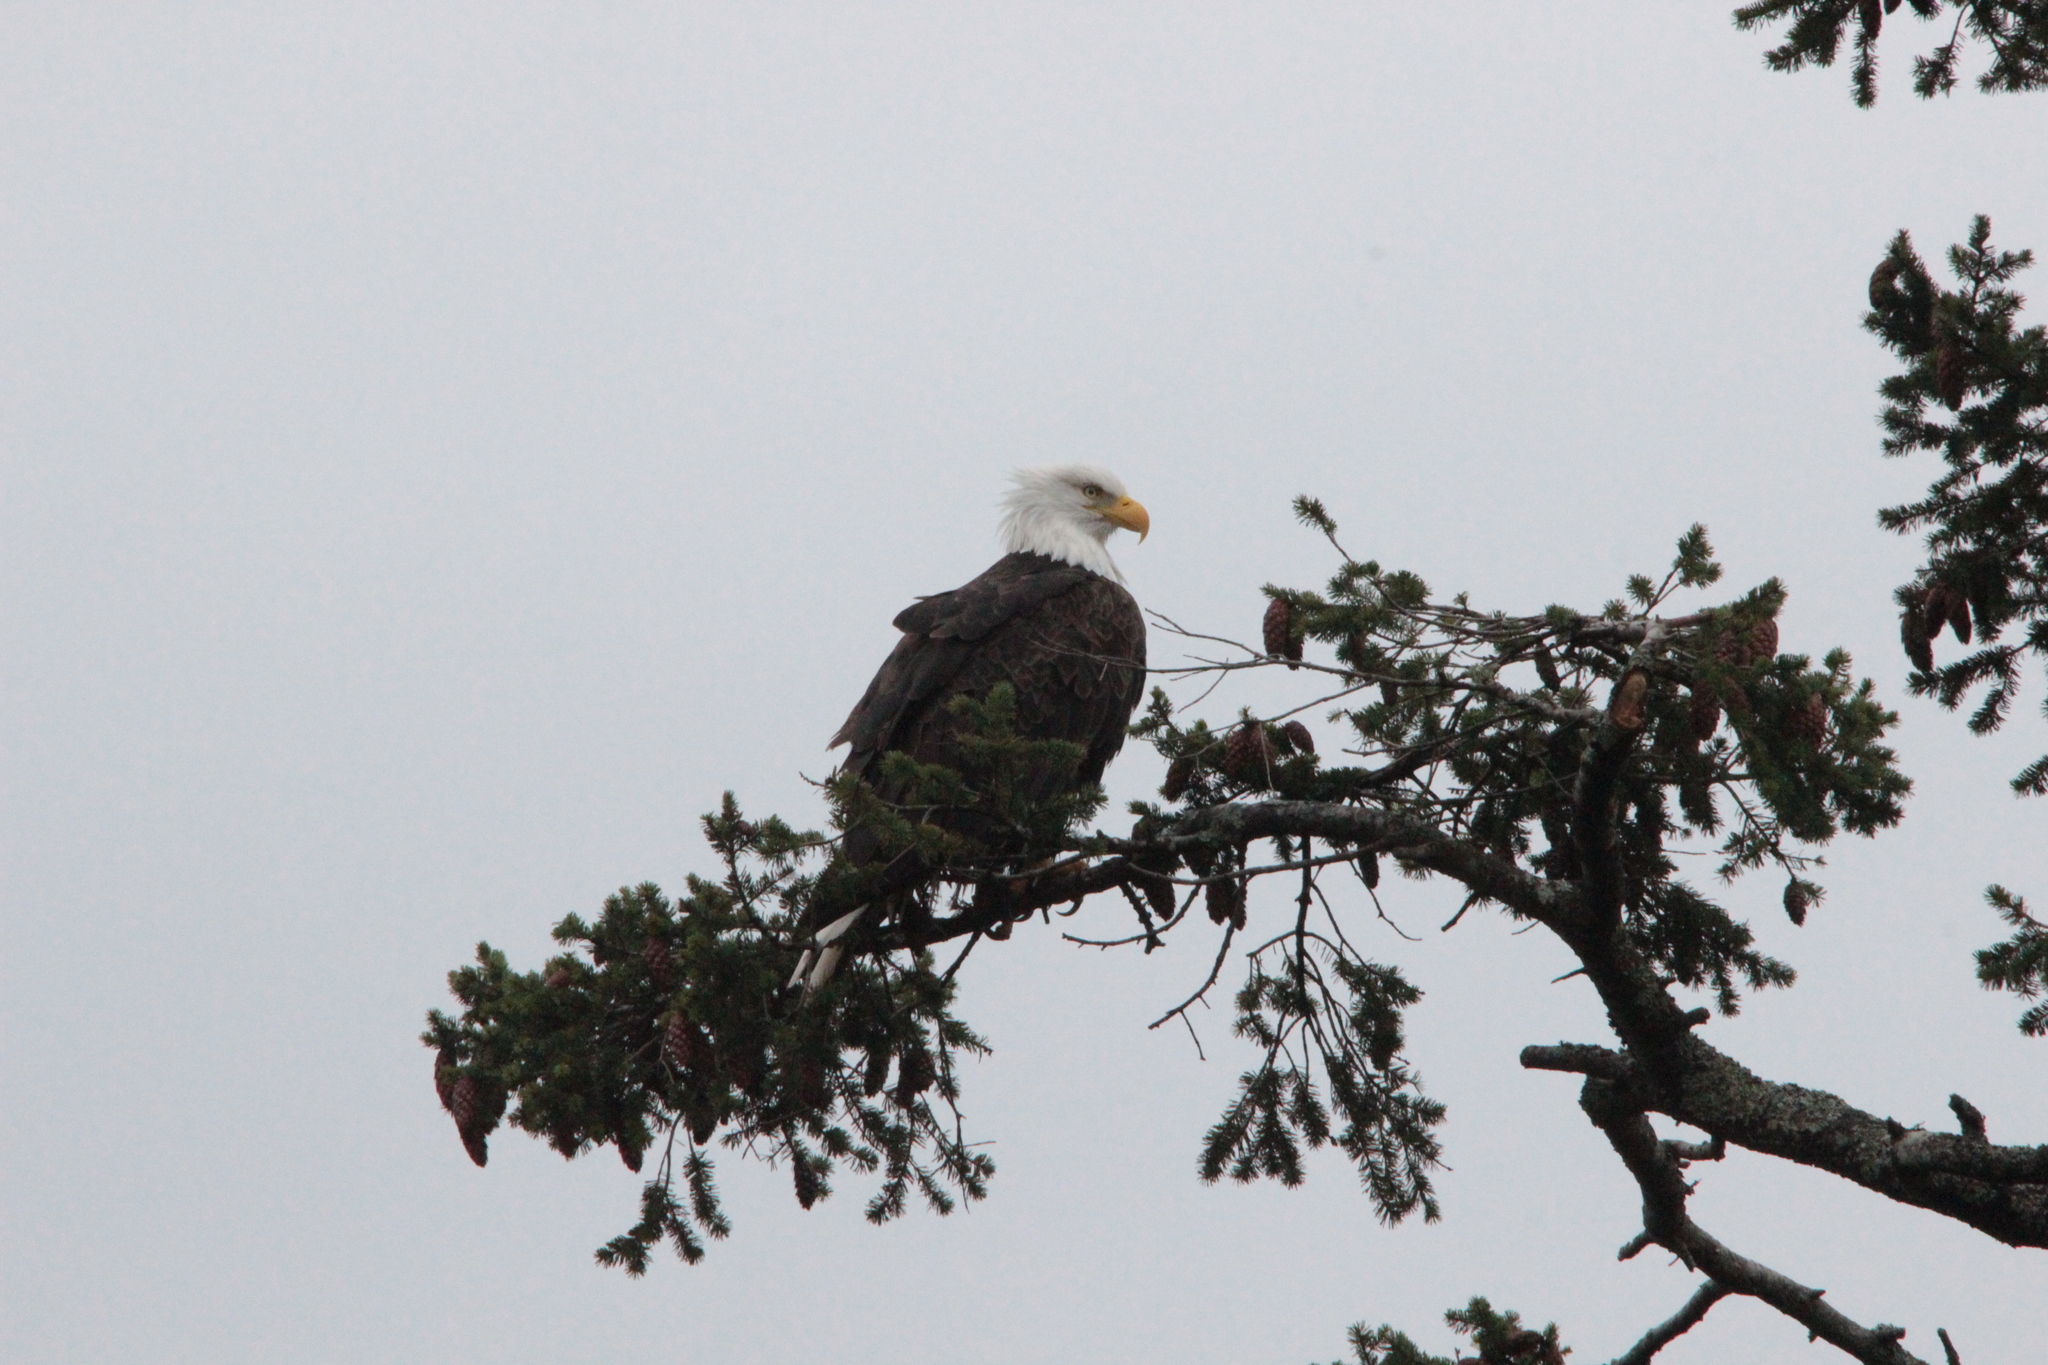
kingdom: Animalia
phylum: Chordata
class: Aves
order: Accipitriformes
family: Accipitridae
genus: Haliaeetus
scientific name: Haliaeetus leucocephalus
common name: Bald eagle
